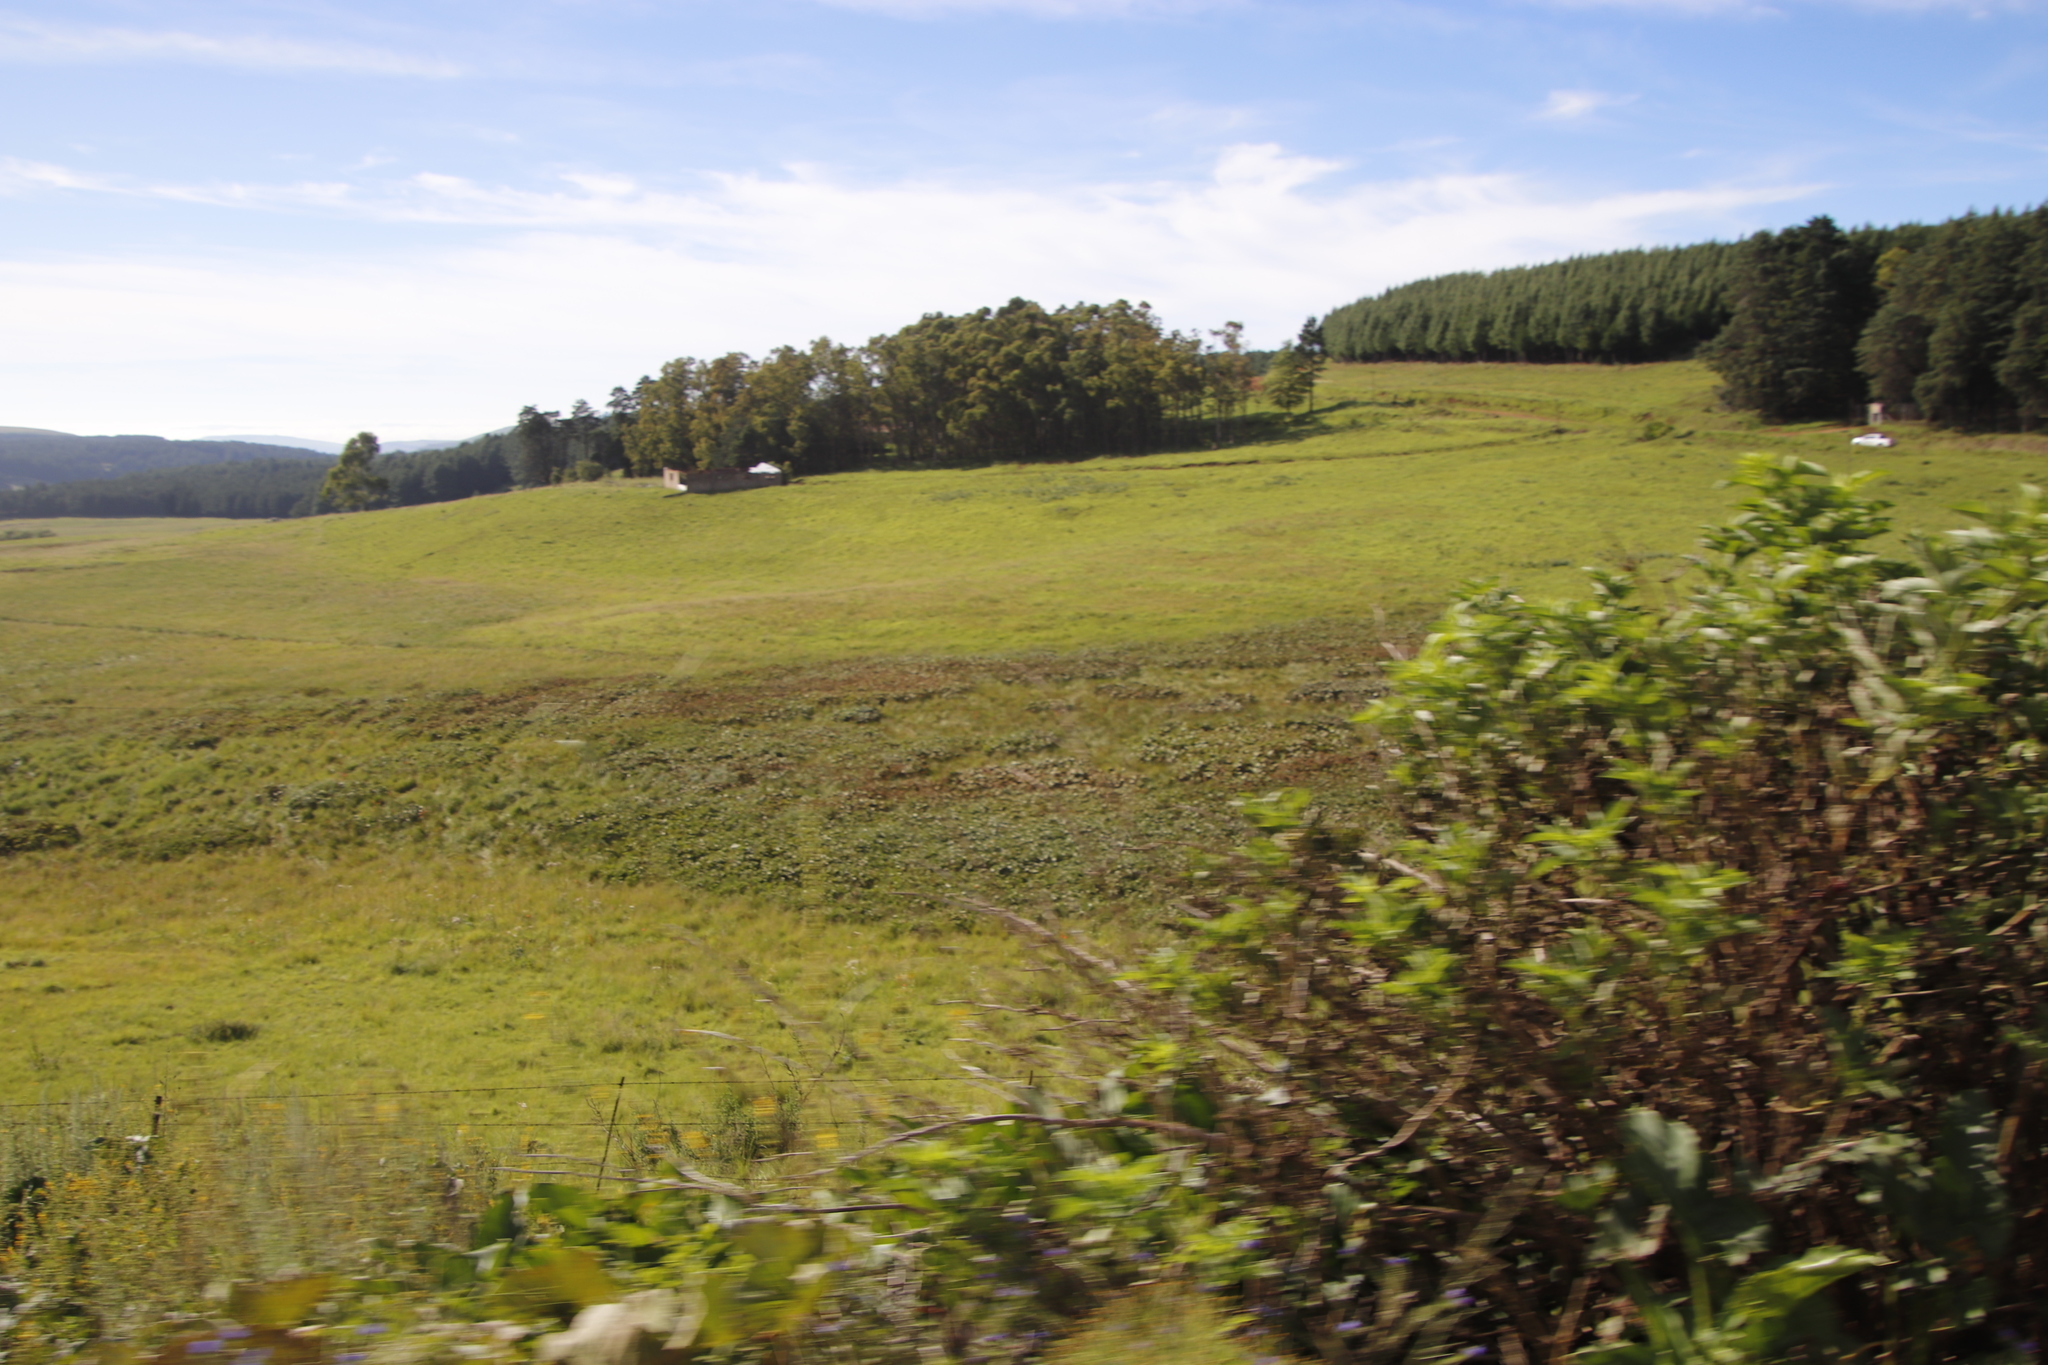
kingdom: Plantae
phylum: Tracheophyta
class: Magnoliopsida
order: Gunnerales
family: Gunneraceae
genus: Gunnera
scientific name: Gunnera perpensa
